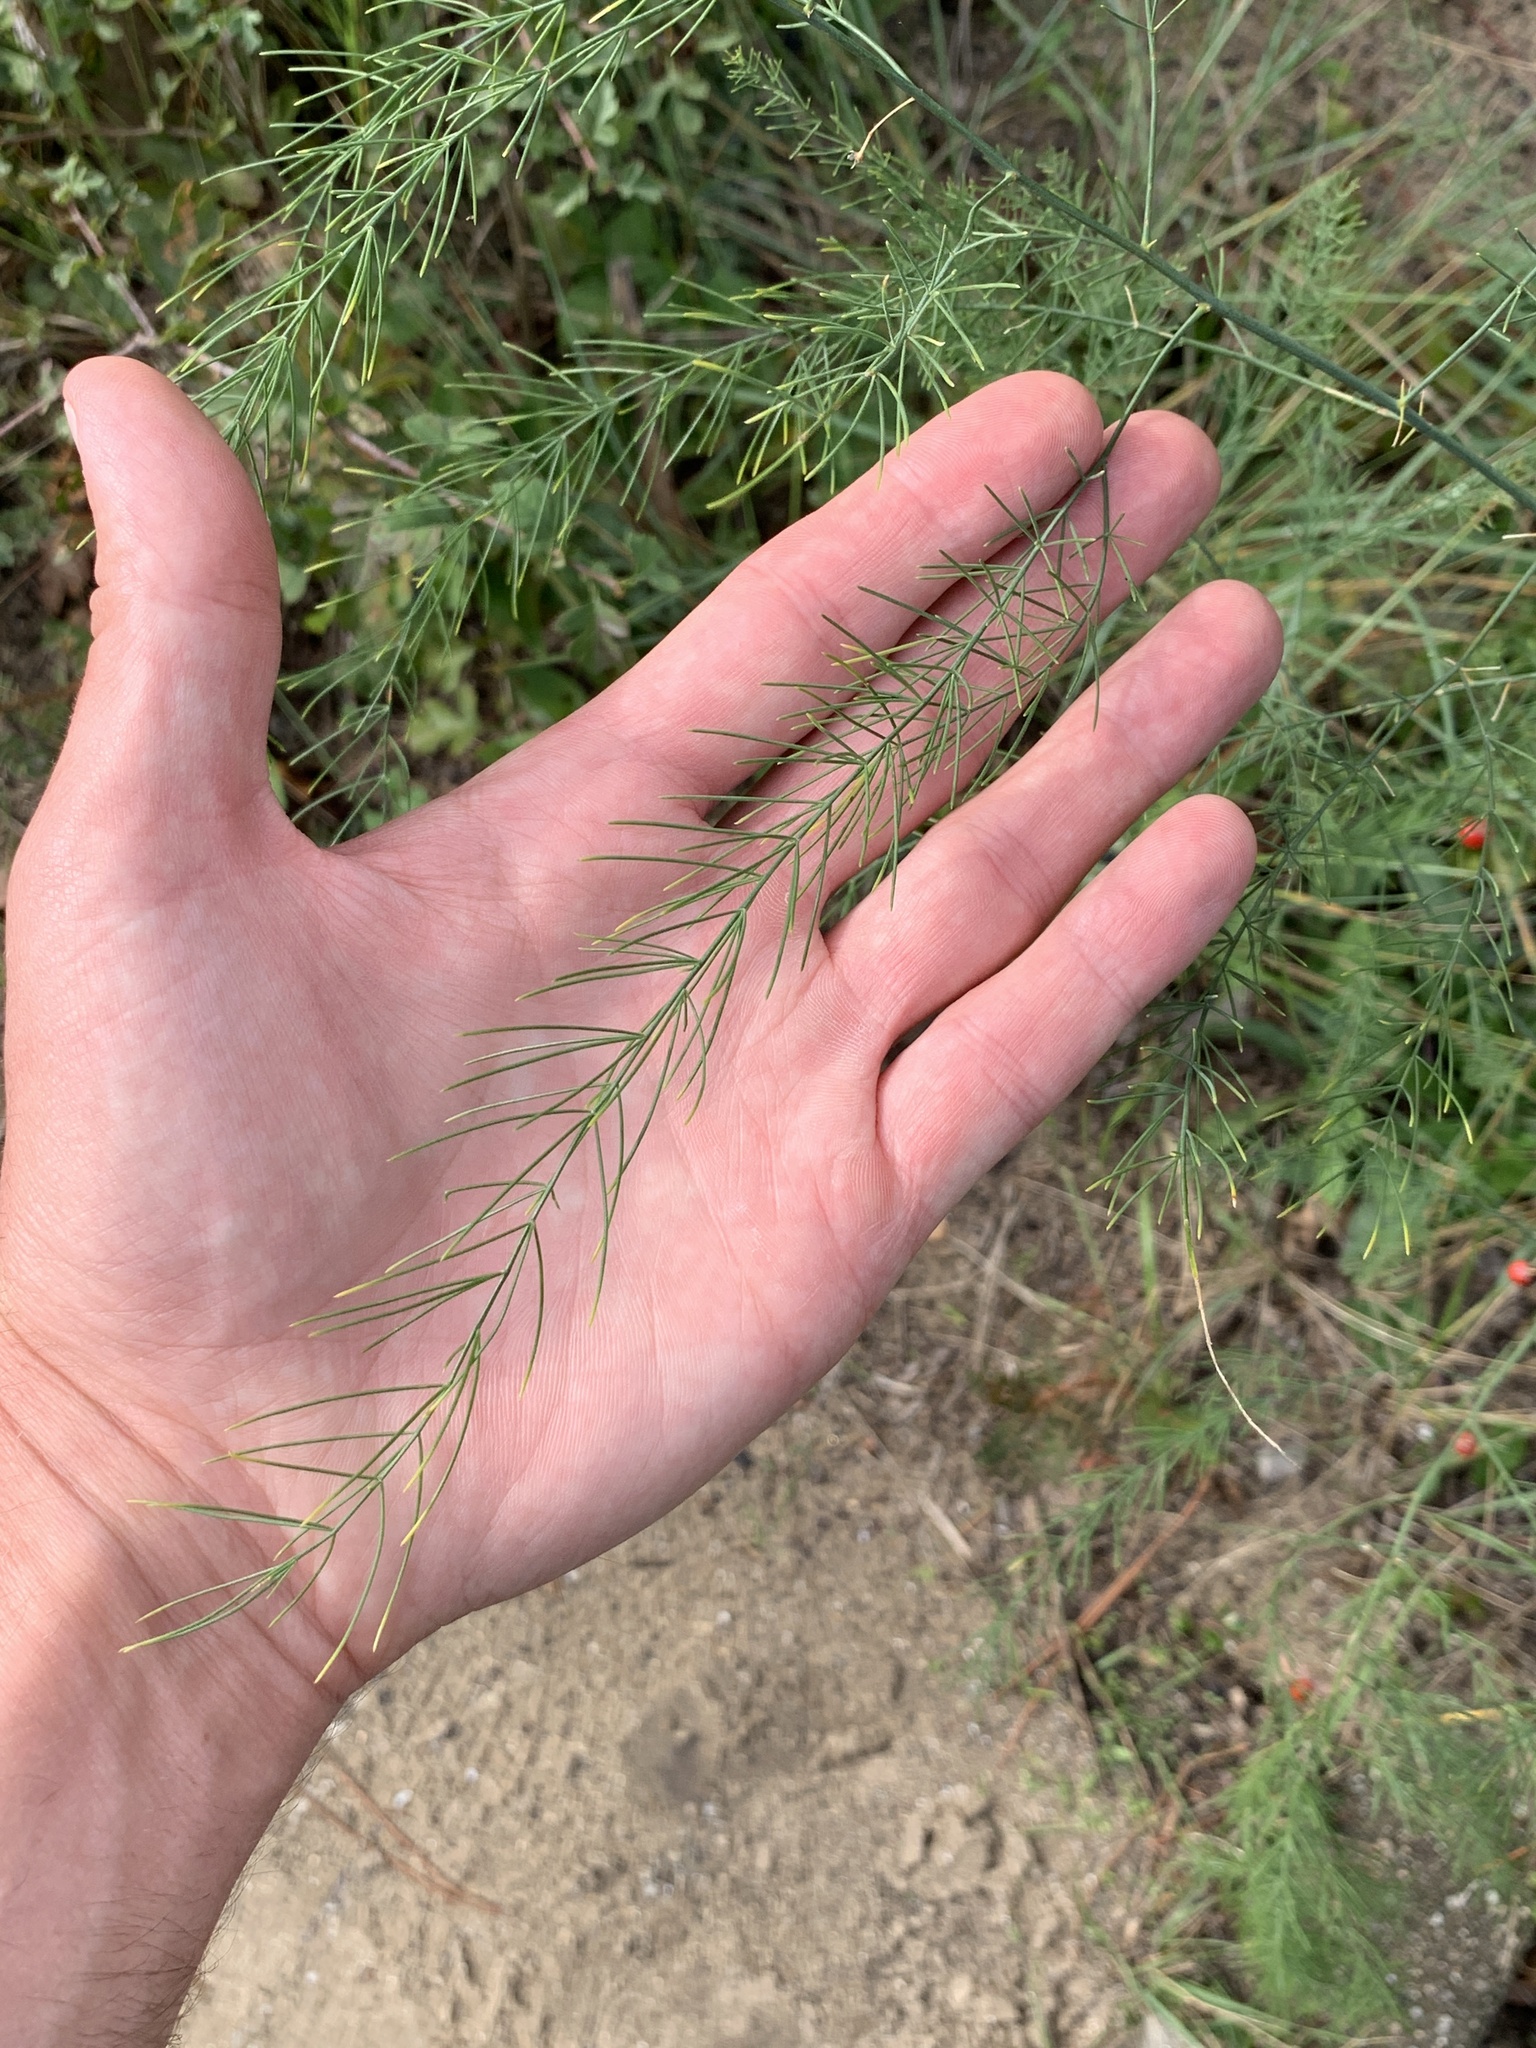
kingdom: Plantae
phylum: Tracheophyta
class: Liliopsida
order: Asparagales
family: Asparagaceae
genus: Asparagus
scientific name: Asparagus officinalis
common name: Garden asparagus
